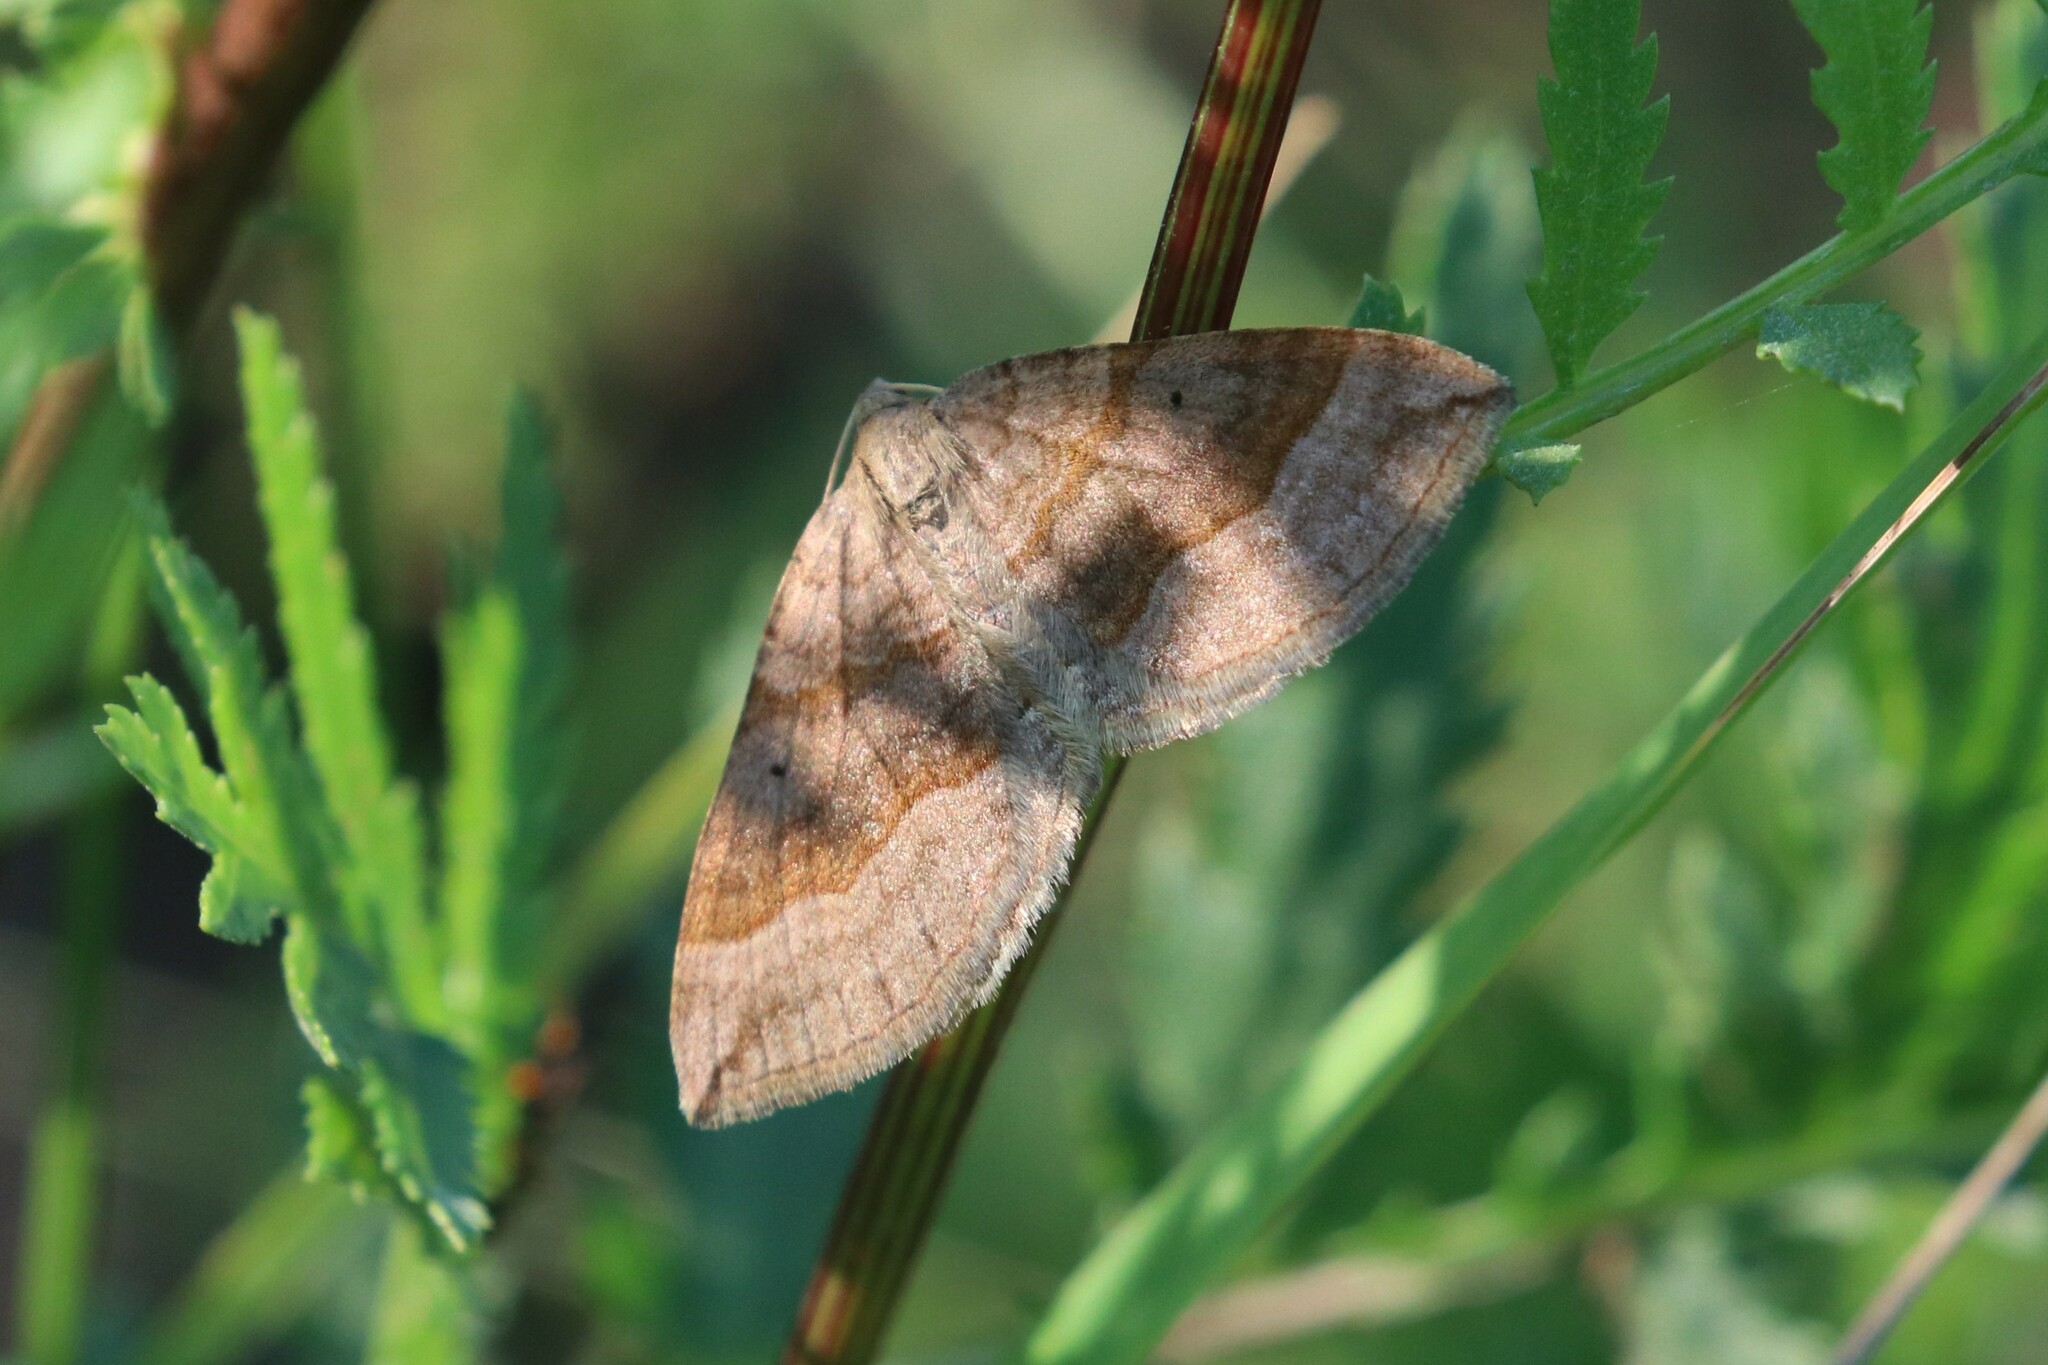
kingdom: Animalia
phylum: Arthropoda
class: Insecta
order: Lepidoptera
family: Geometridae
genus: Scotopteryx
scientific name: Scotopteryx chenopodiata
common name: Shaded broad-bar
